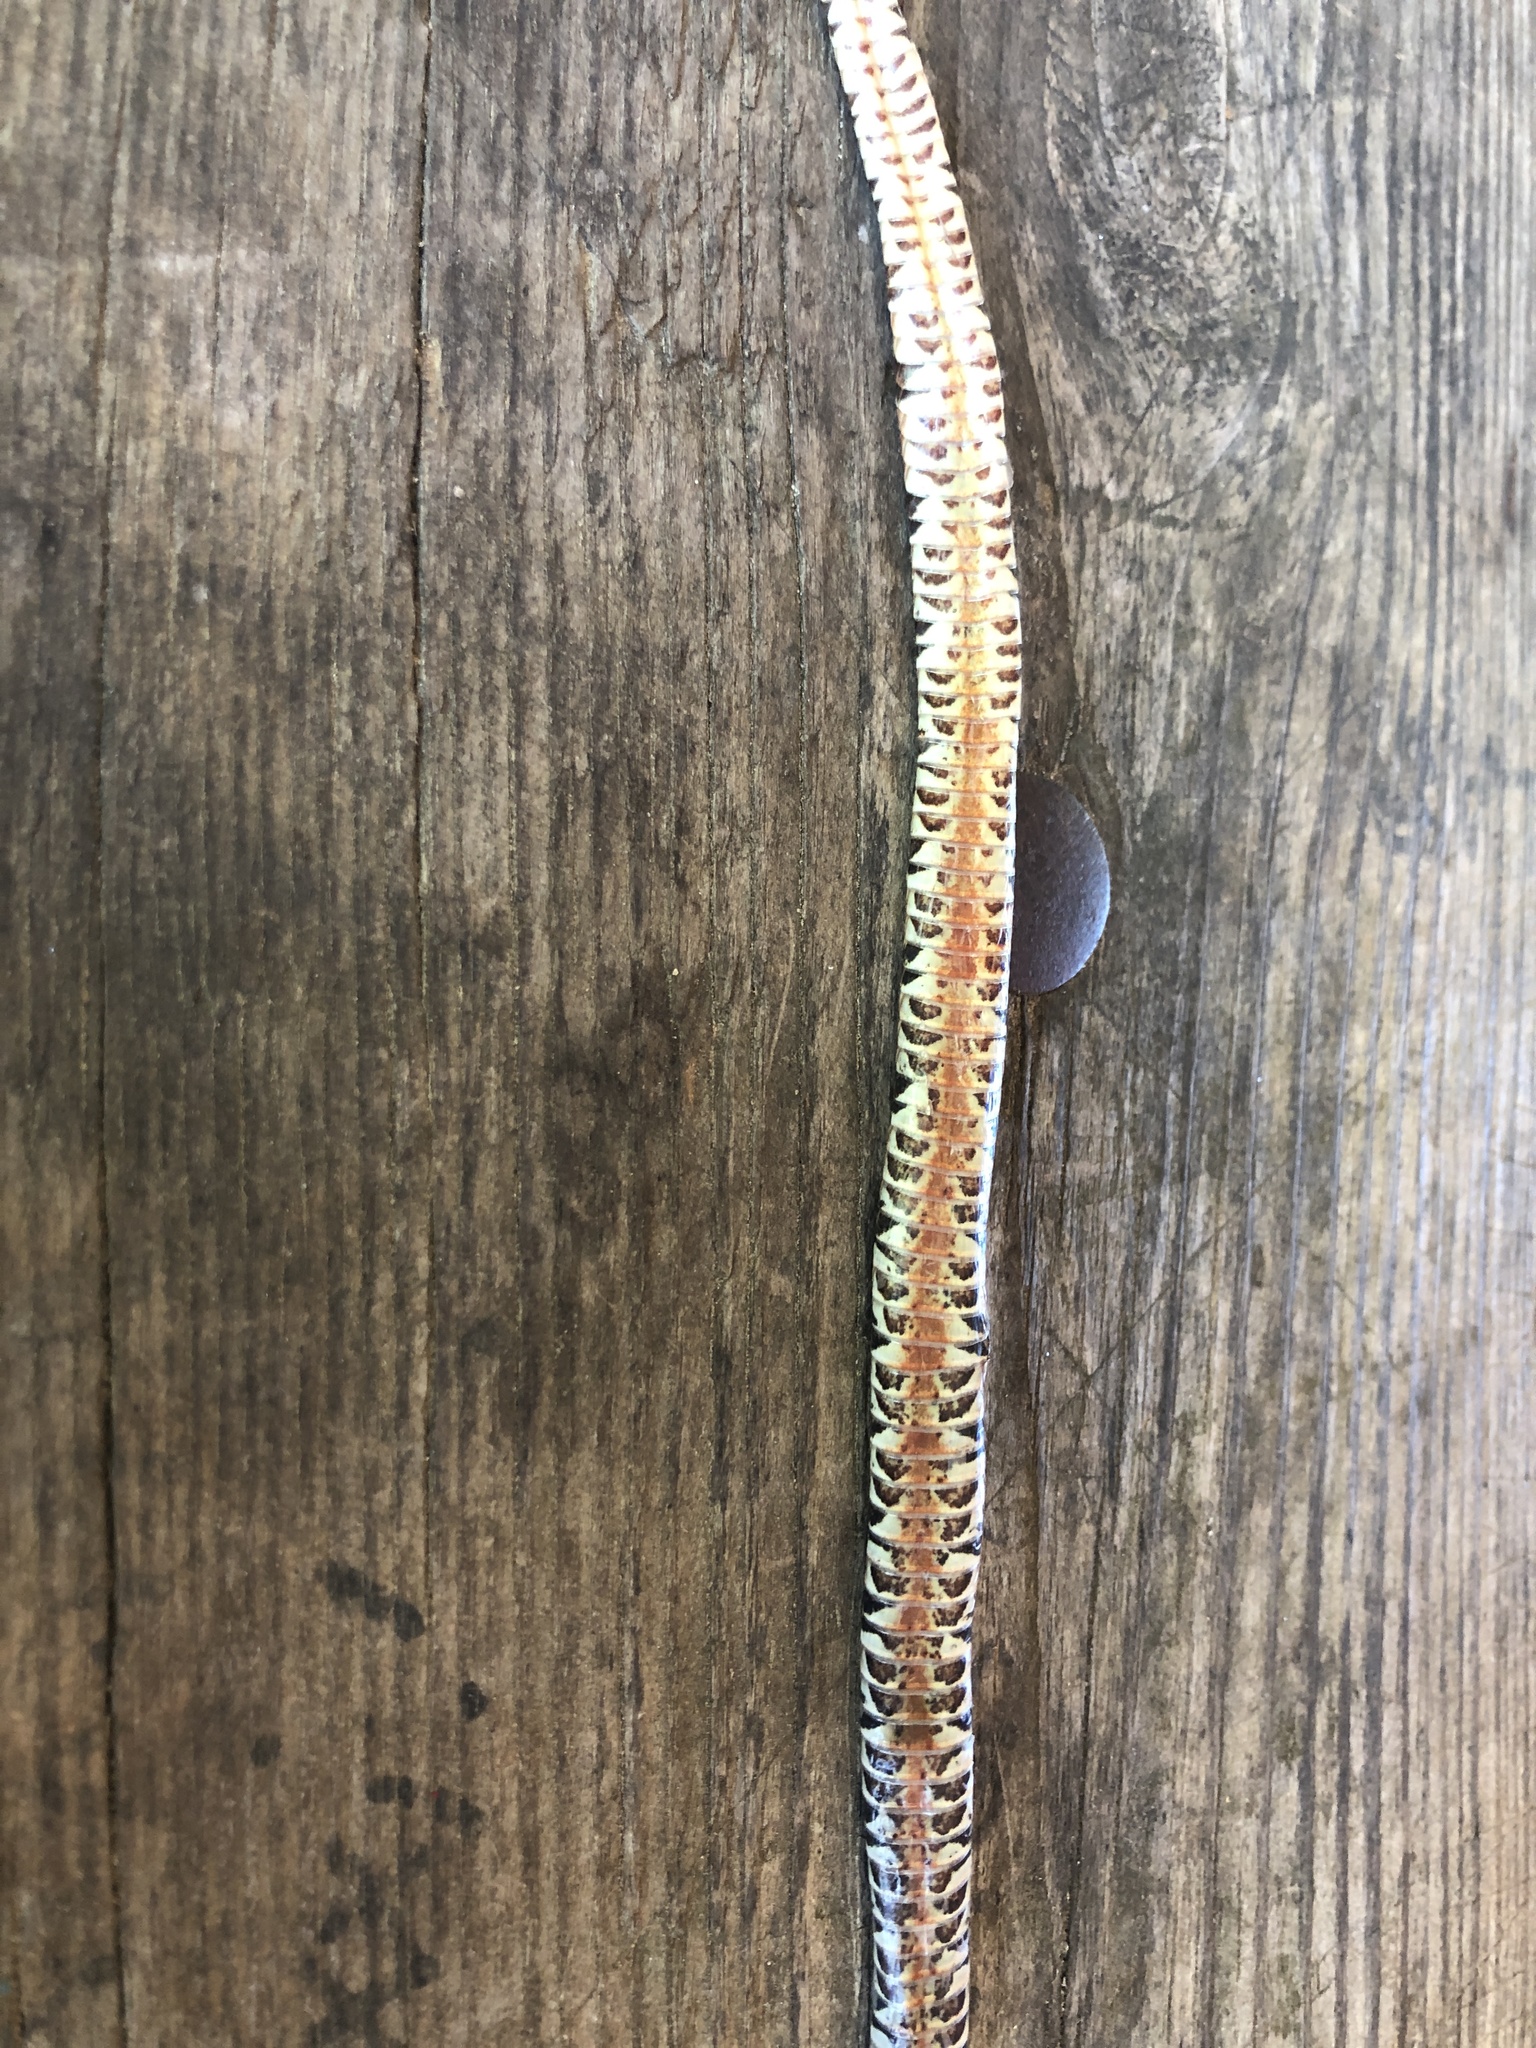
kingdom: Animalia
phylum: Chordata
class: Squamata
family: Colubridae
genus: Nerodia
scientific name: Nerodia sipedon
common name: Northern water snake
